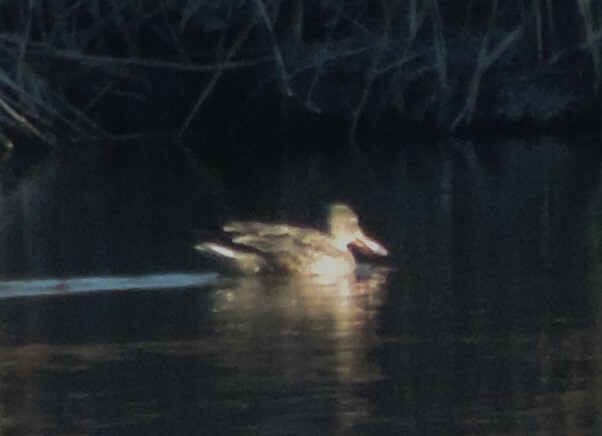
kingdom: Animalia
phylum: Chordata
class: Aves
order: Anseriformes
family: Anatidae
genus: Spatula
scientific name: Spatula clypeata
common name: Northern shoveler
